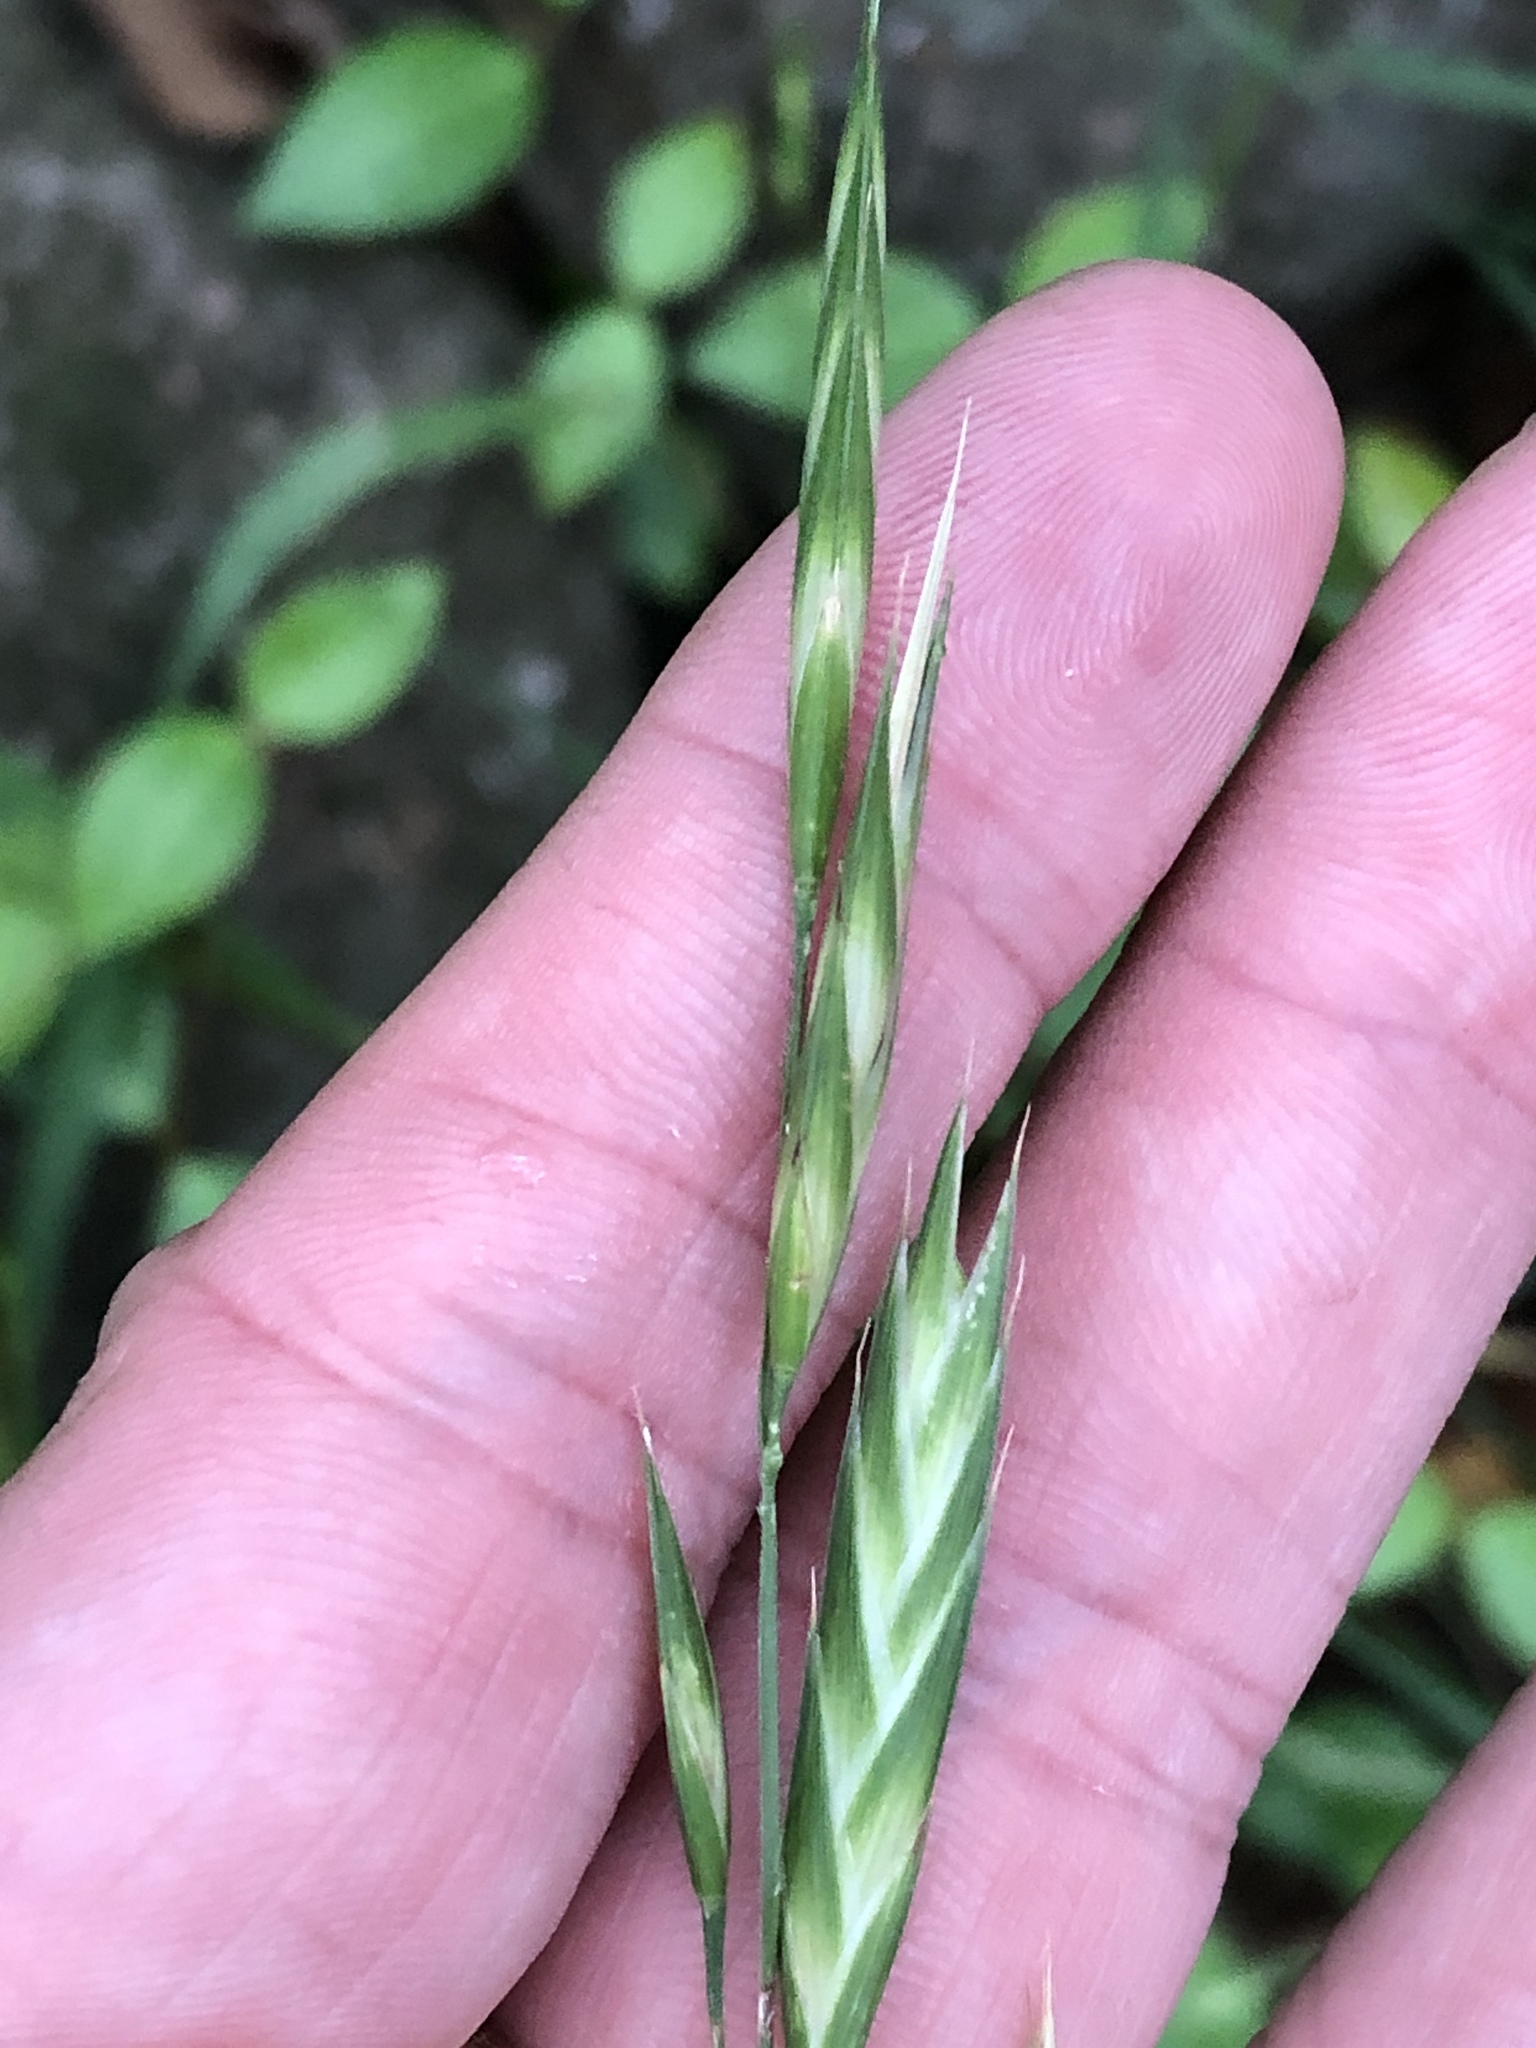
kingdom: Plantae
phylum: Tracheophyta
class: Liliopsida
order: Poales
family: Poaceae
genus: Bromus
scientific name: Bromus catharticus
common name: Rescuegrass
